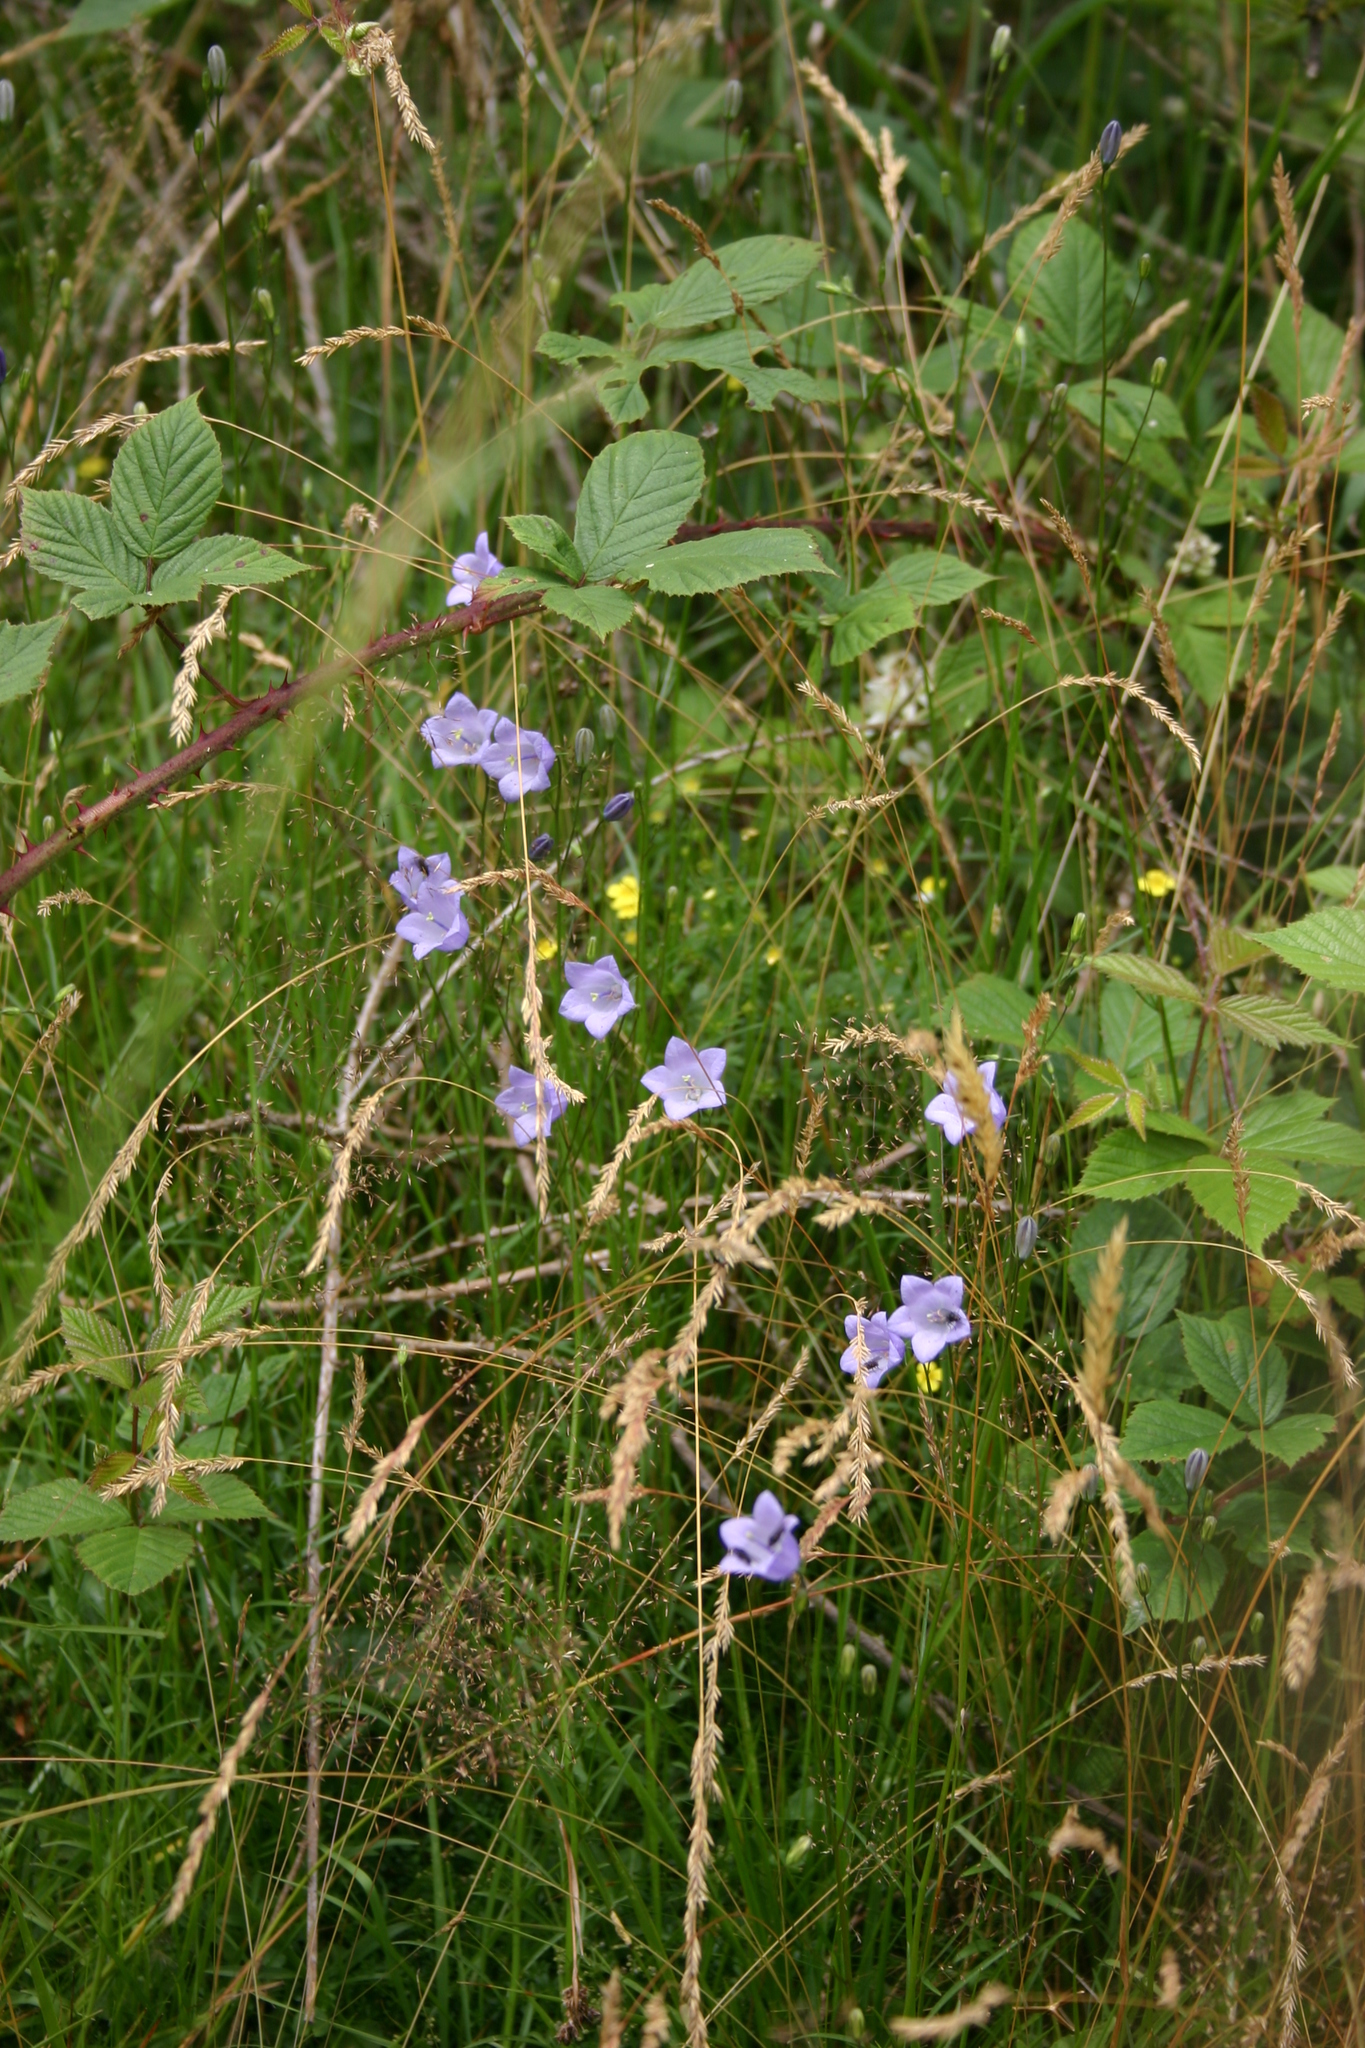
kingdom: Plantae
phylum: Tracheophyta
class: Magnoliopsida
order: Asterales
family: Campanulaceae
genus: Campanula
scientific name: Campanula rotundifolia
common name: Harebell
